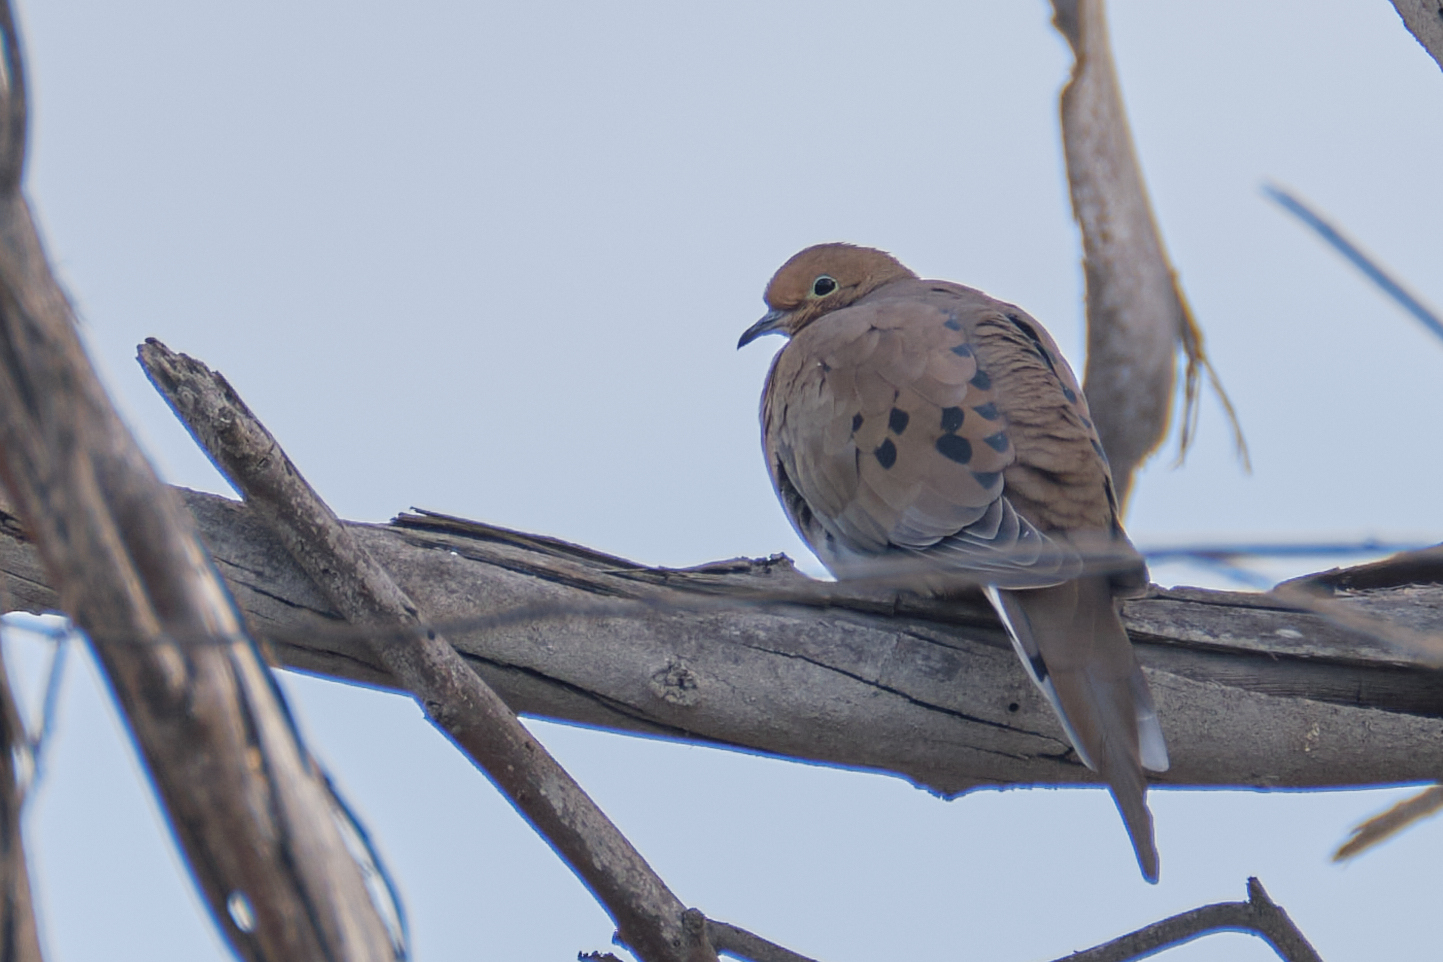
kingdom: Animalia
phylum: Chordata
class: Aves
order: Columbiformes
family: Columbidae
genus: Zenaida
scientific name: Zenaida macroura
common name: Mourning dove
